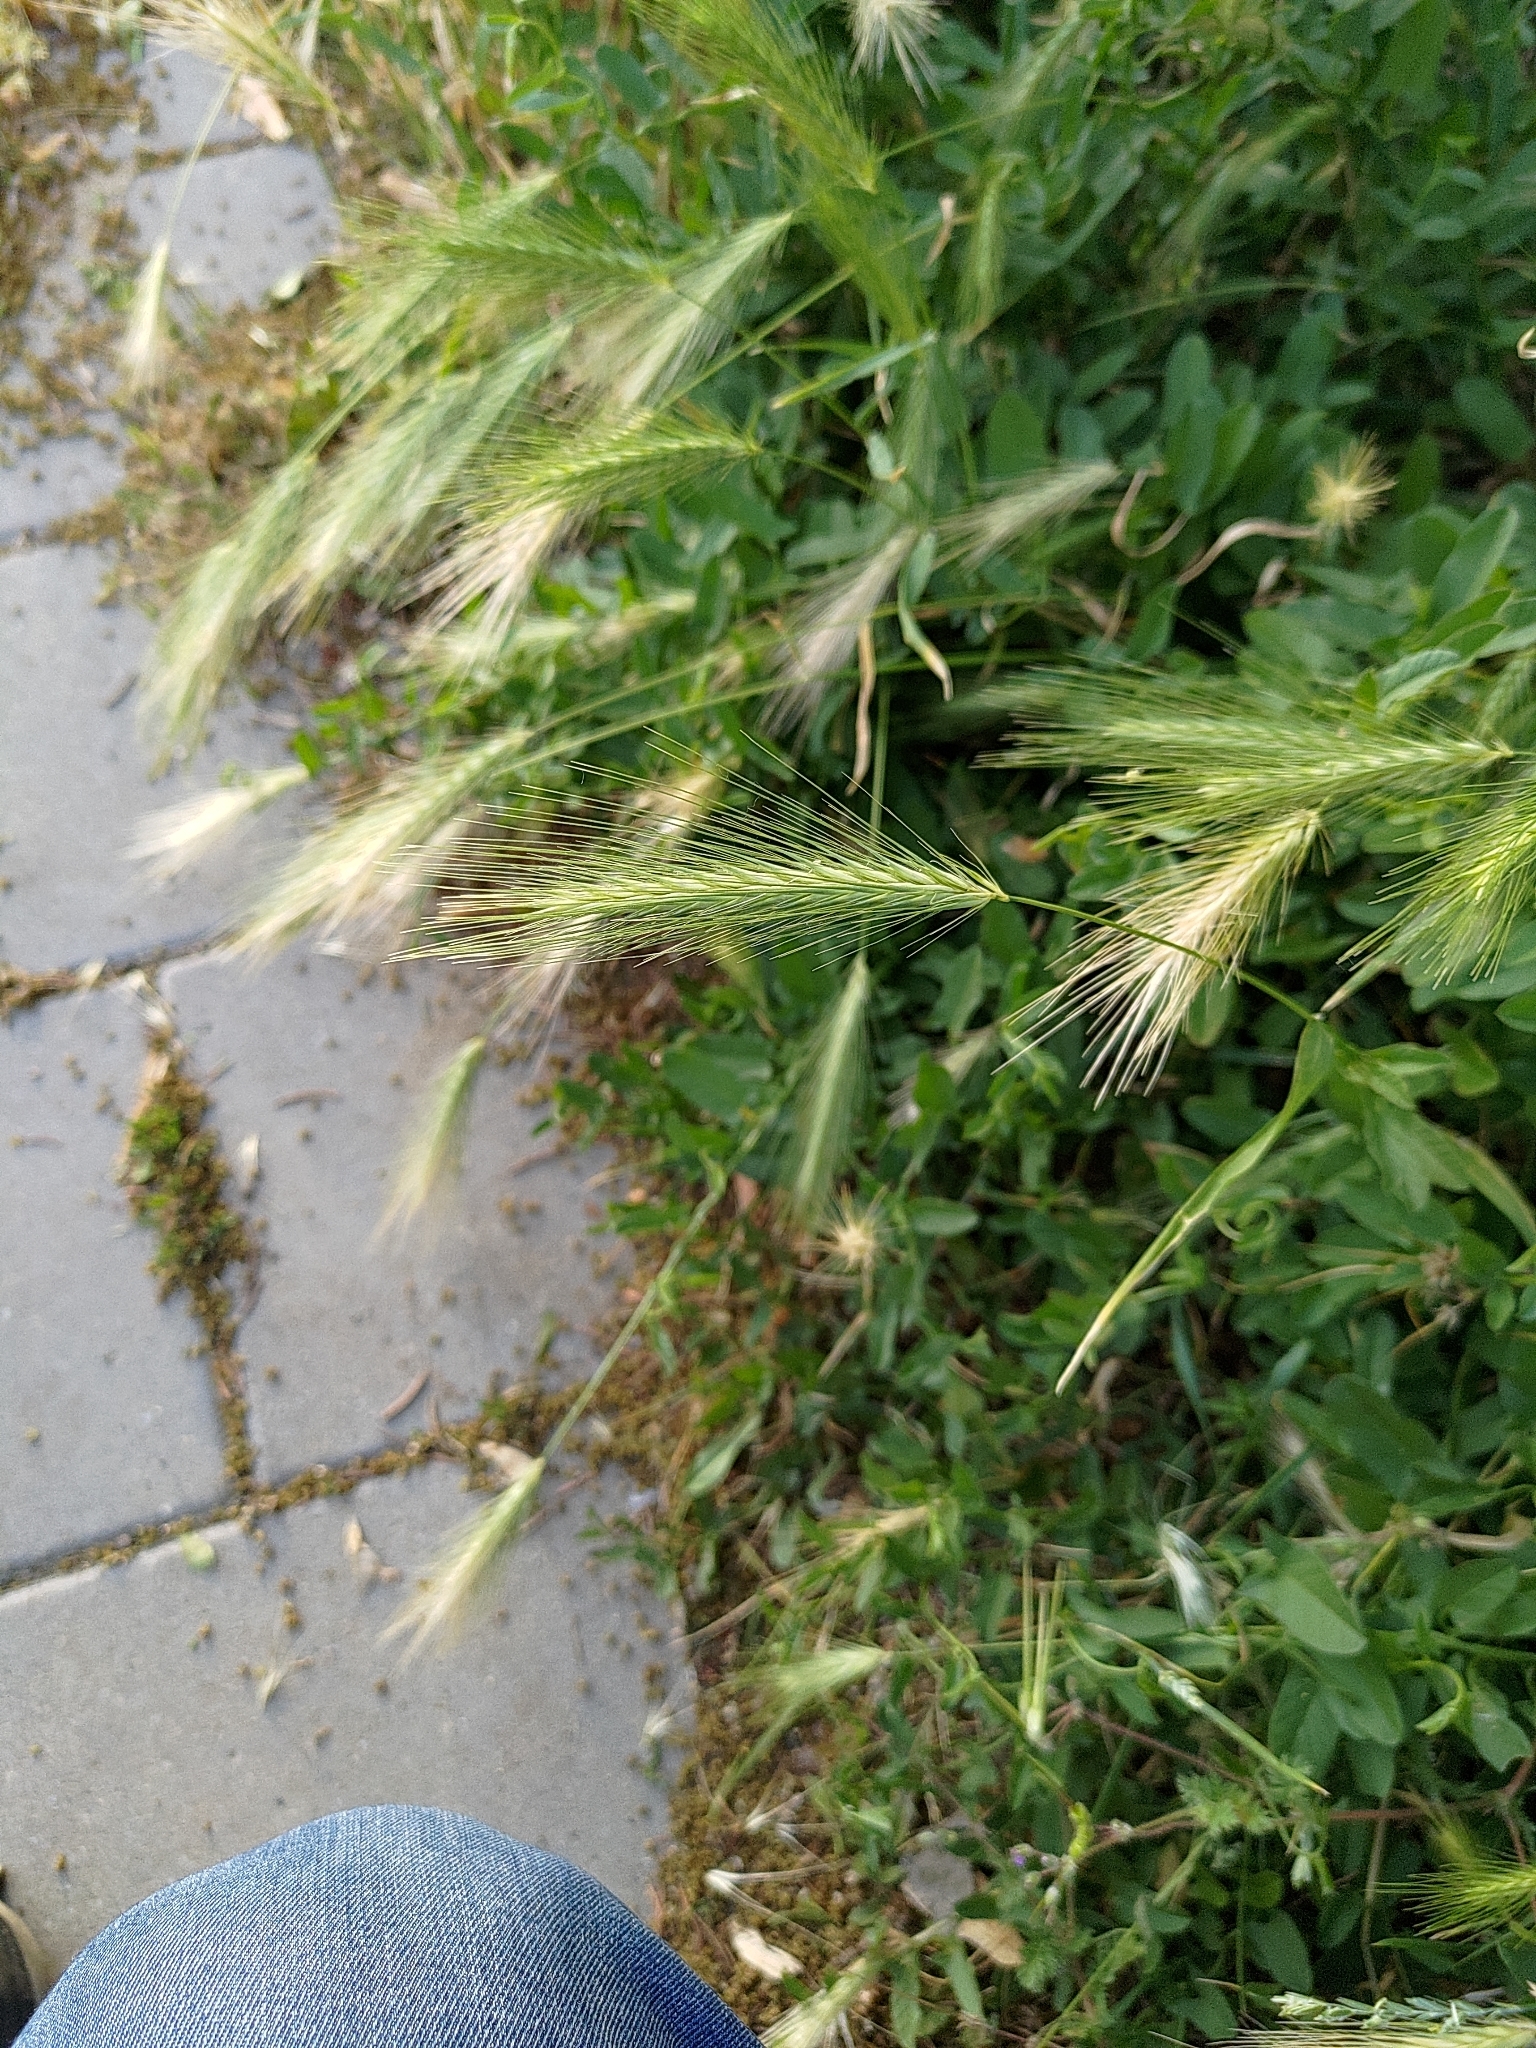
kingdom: Plantae
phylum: Tracheophyta
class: Liliopsida
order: Poales
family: Poaceae
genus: Hordeum
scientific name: Hordeum murinum
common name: Wall barley
